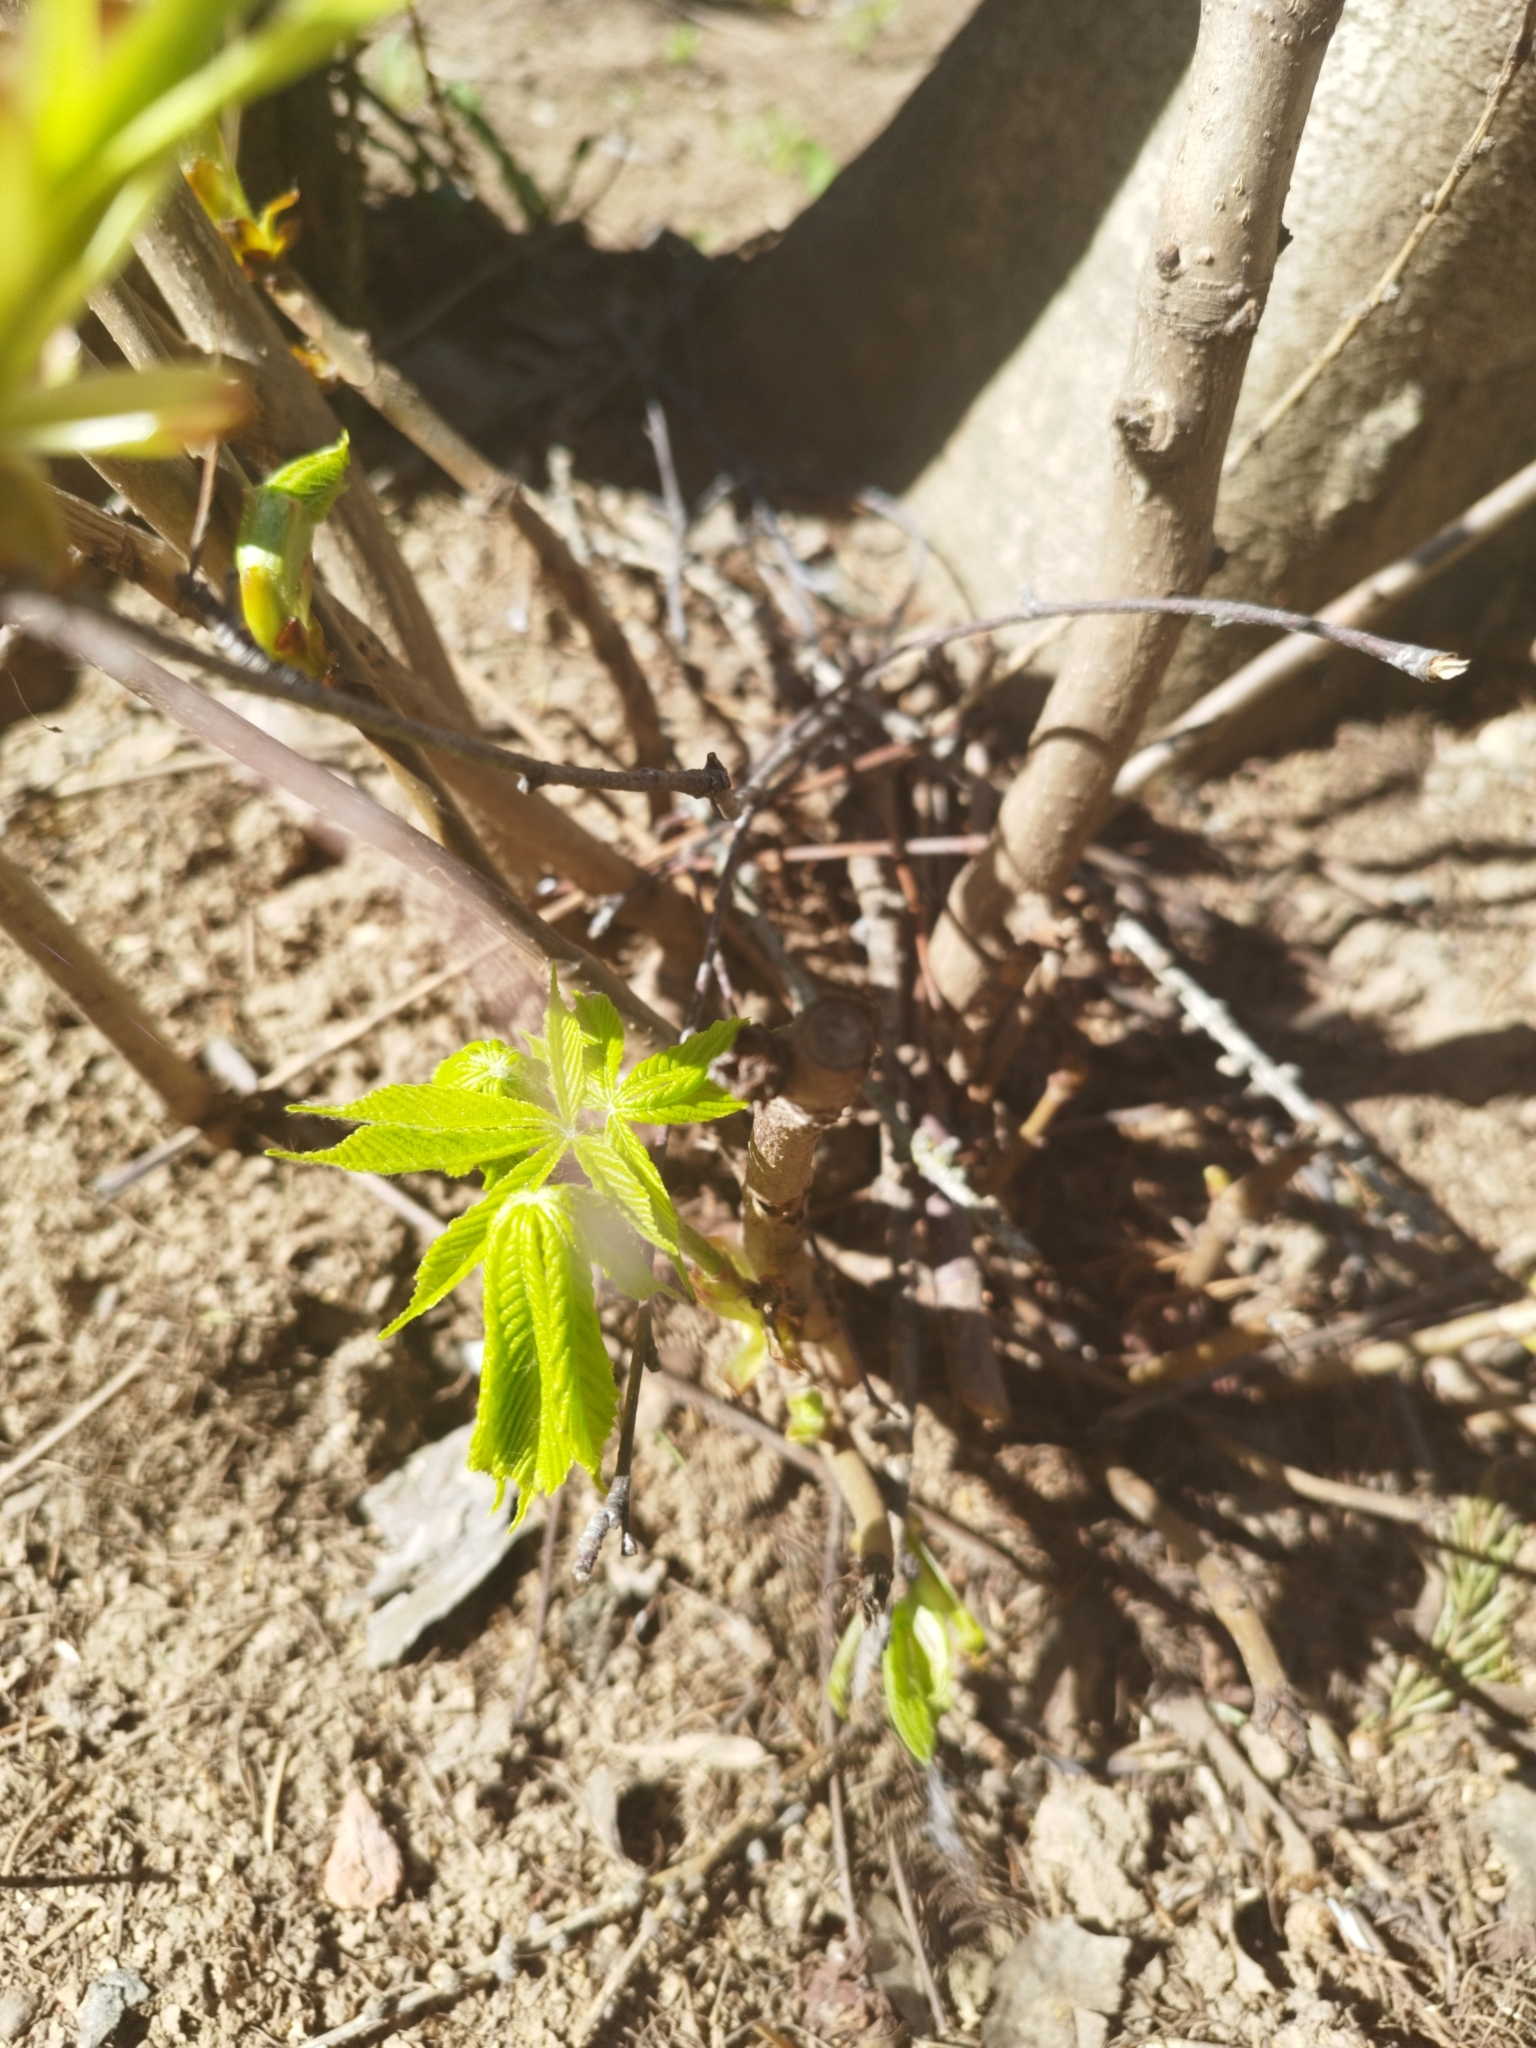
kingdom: Plantae
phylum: Tracheophyta
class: Magnoliopsida
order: Sapindales
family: Sapindaceae
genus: Aesculus
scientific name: Aesculus hippocastanum
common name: Horse-chestnut
